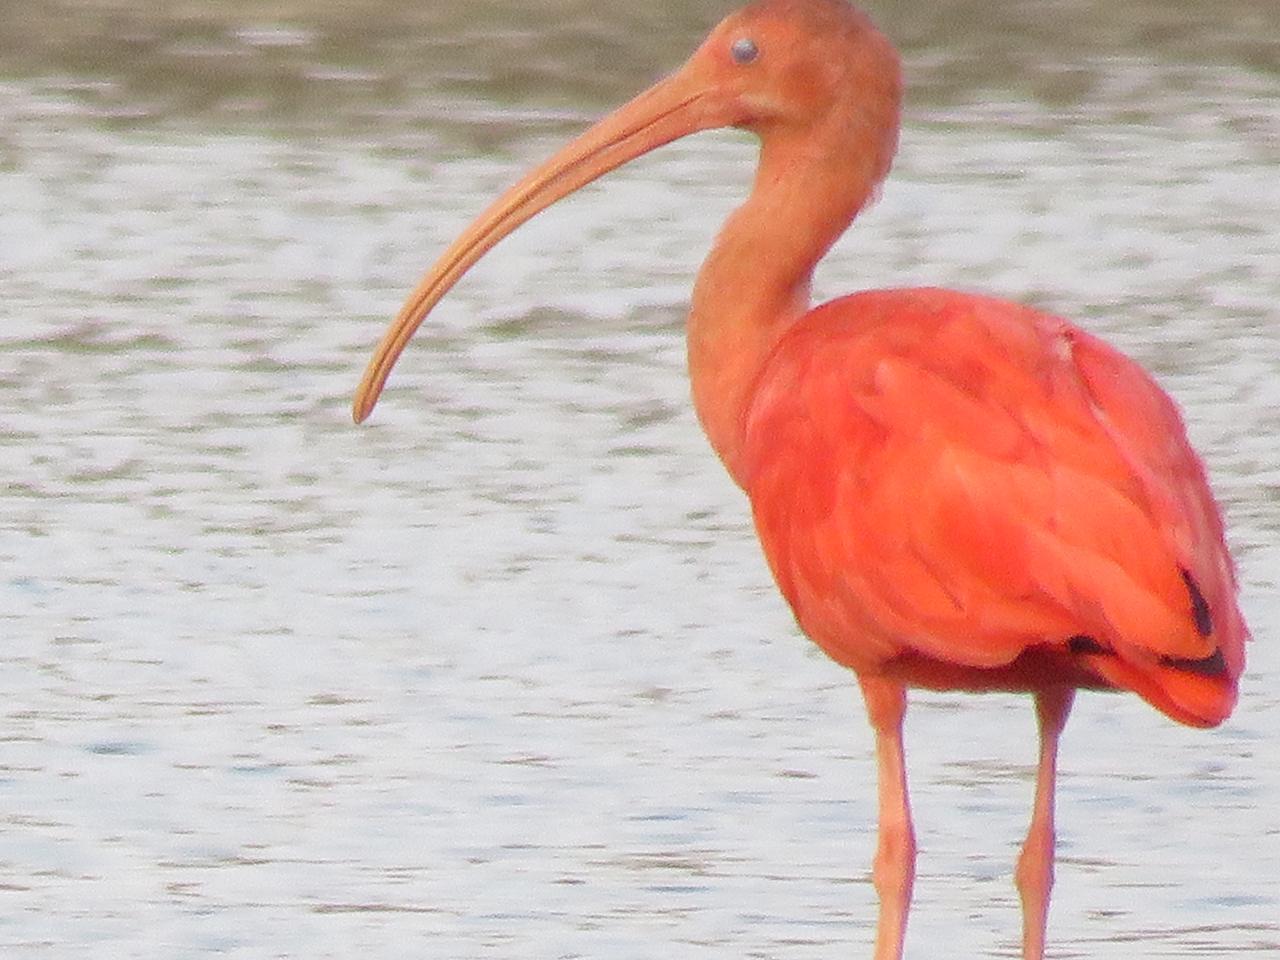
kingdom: Animalia
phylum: Chordata
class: Aves
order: Pelecaniformes
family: Threskiornithidae
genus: Eudocimus
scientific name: Eudocimus ruber
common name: Scarlet ibis
